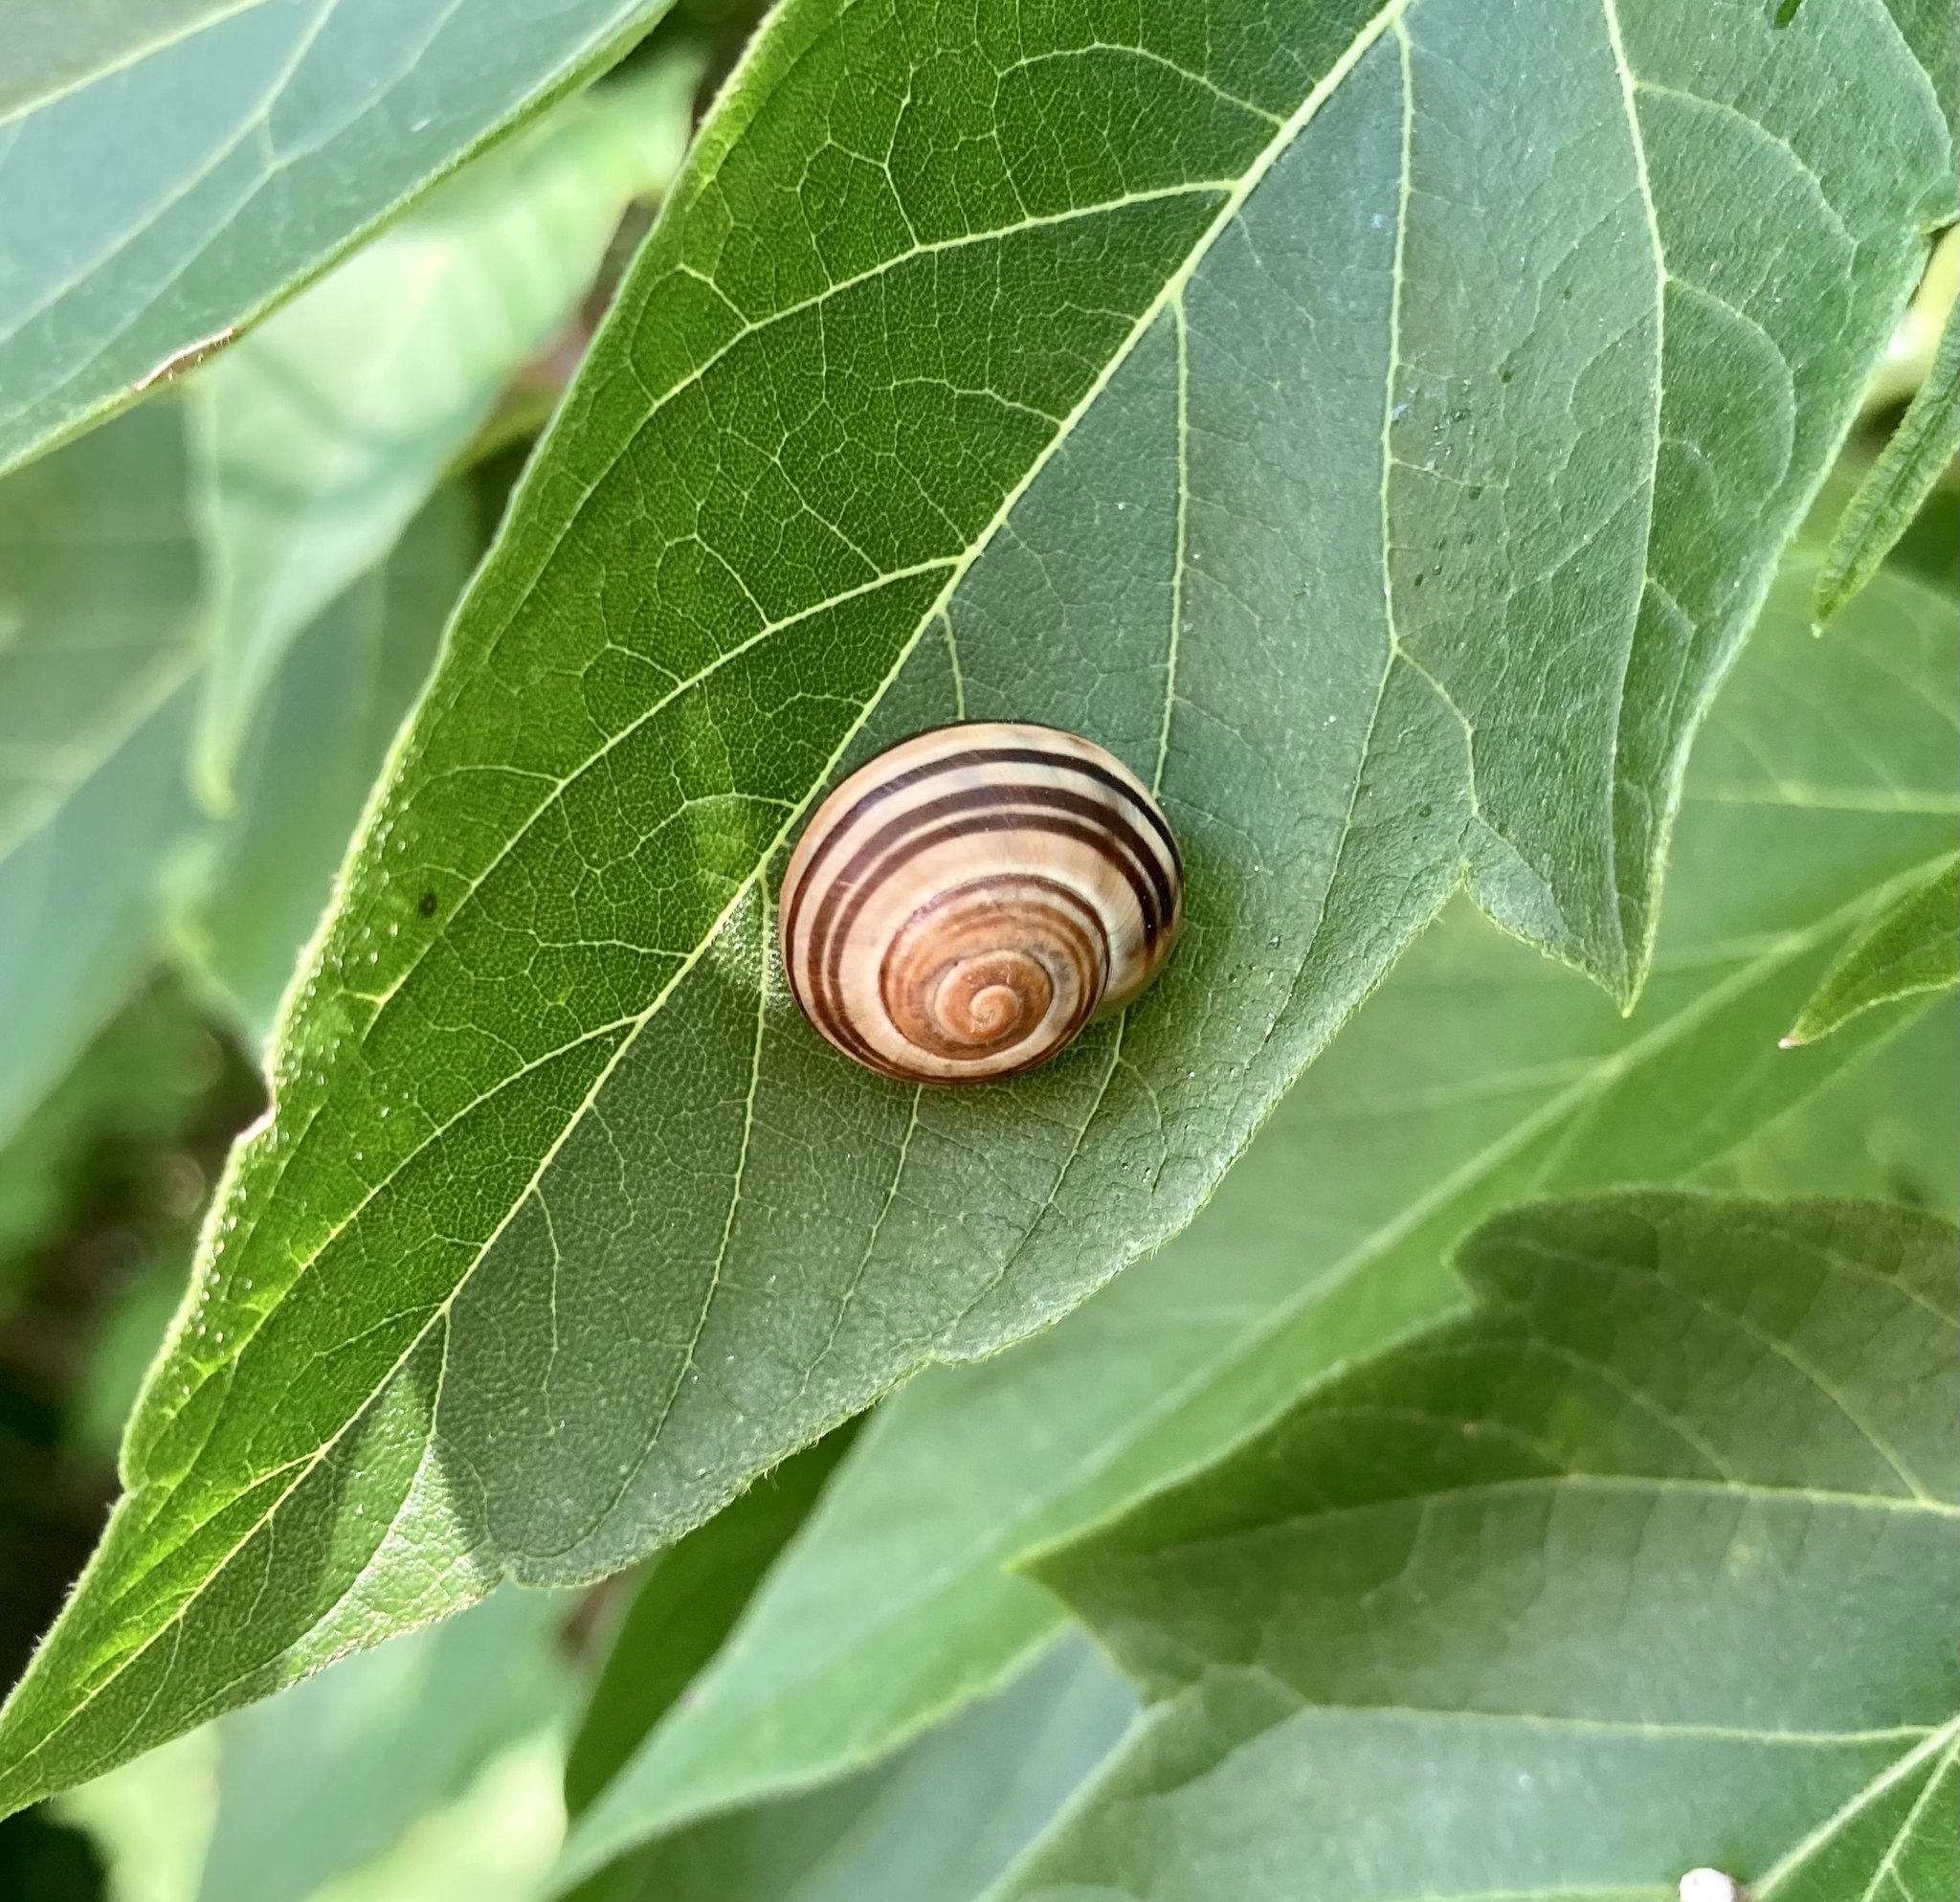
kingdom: Animalia
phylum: Mollusca
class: Gastropoda
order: Stylommatophora
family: Helicidae
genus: Cepaea
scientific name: Cepaea
